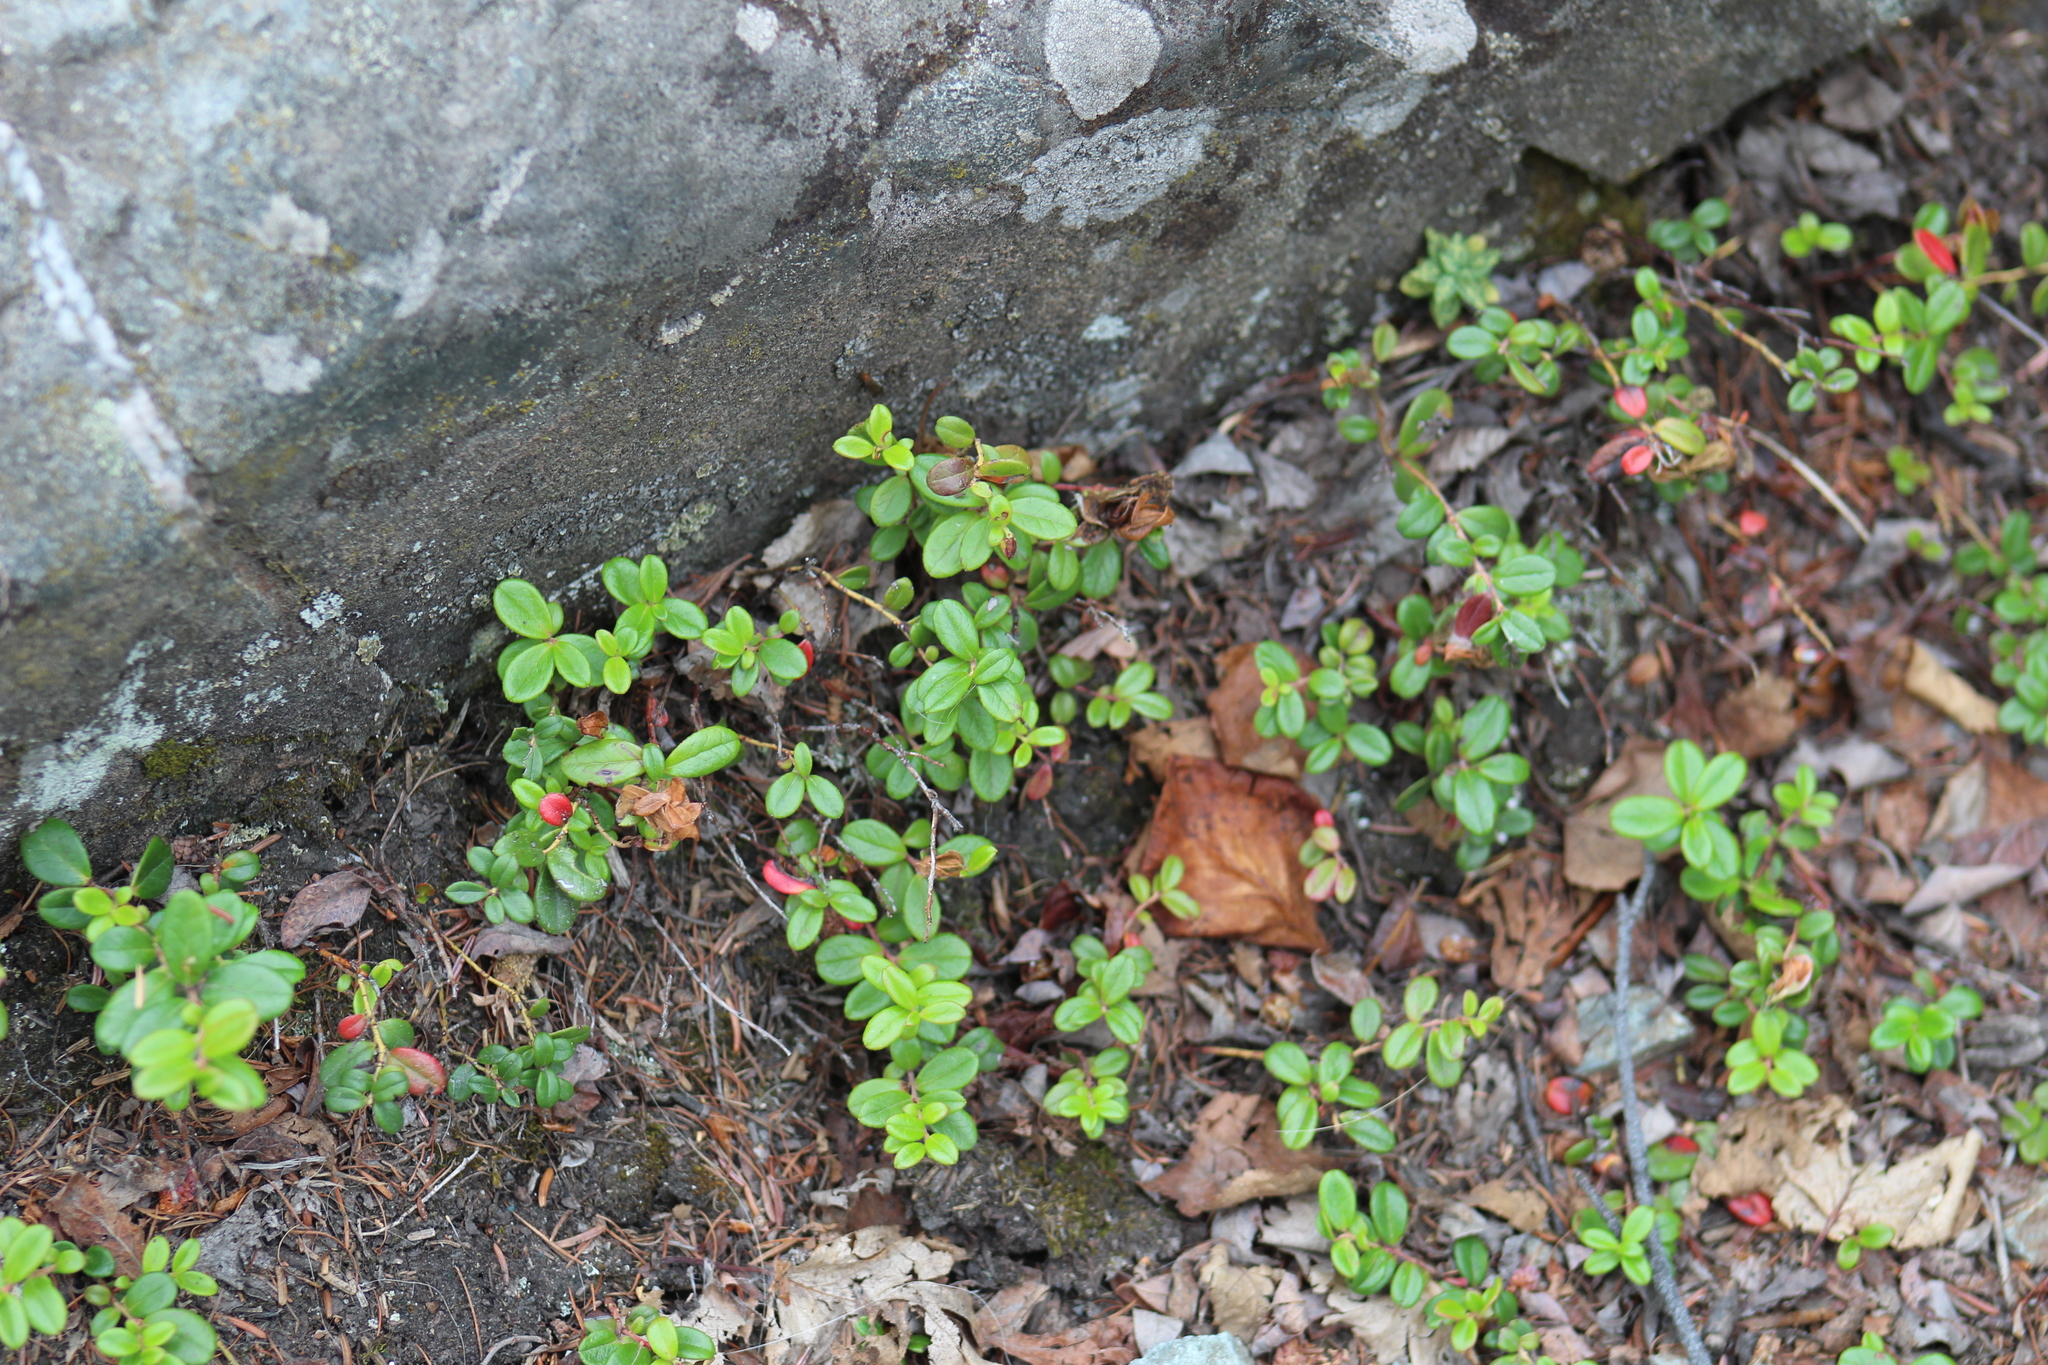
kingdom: Plantae
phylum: Tracheophyta
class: Magnoliopsida
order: Ericales
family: Ericaceae
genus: Vaccinium
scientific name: Vaccinium vitis-idaea
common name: Cowberry
